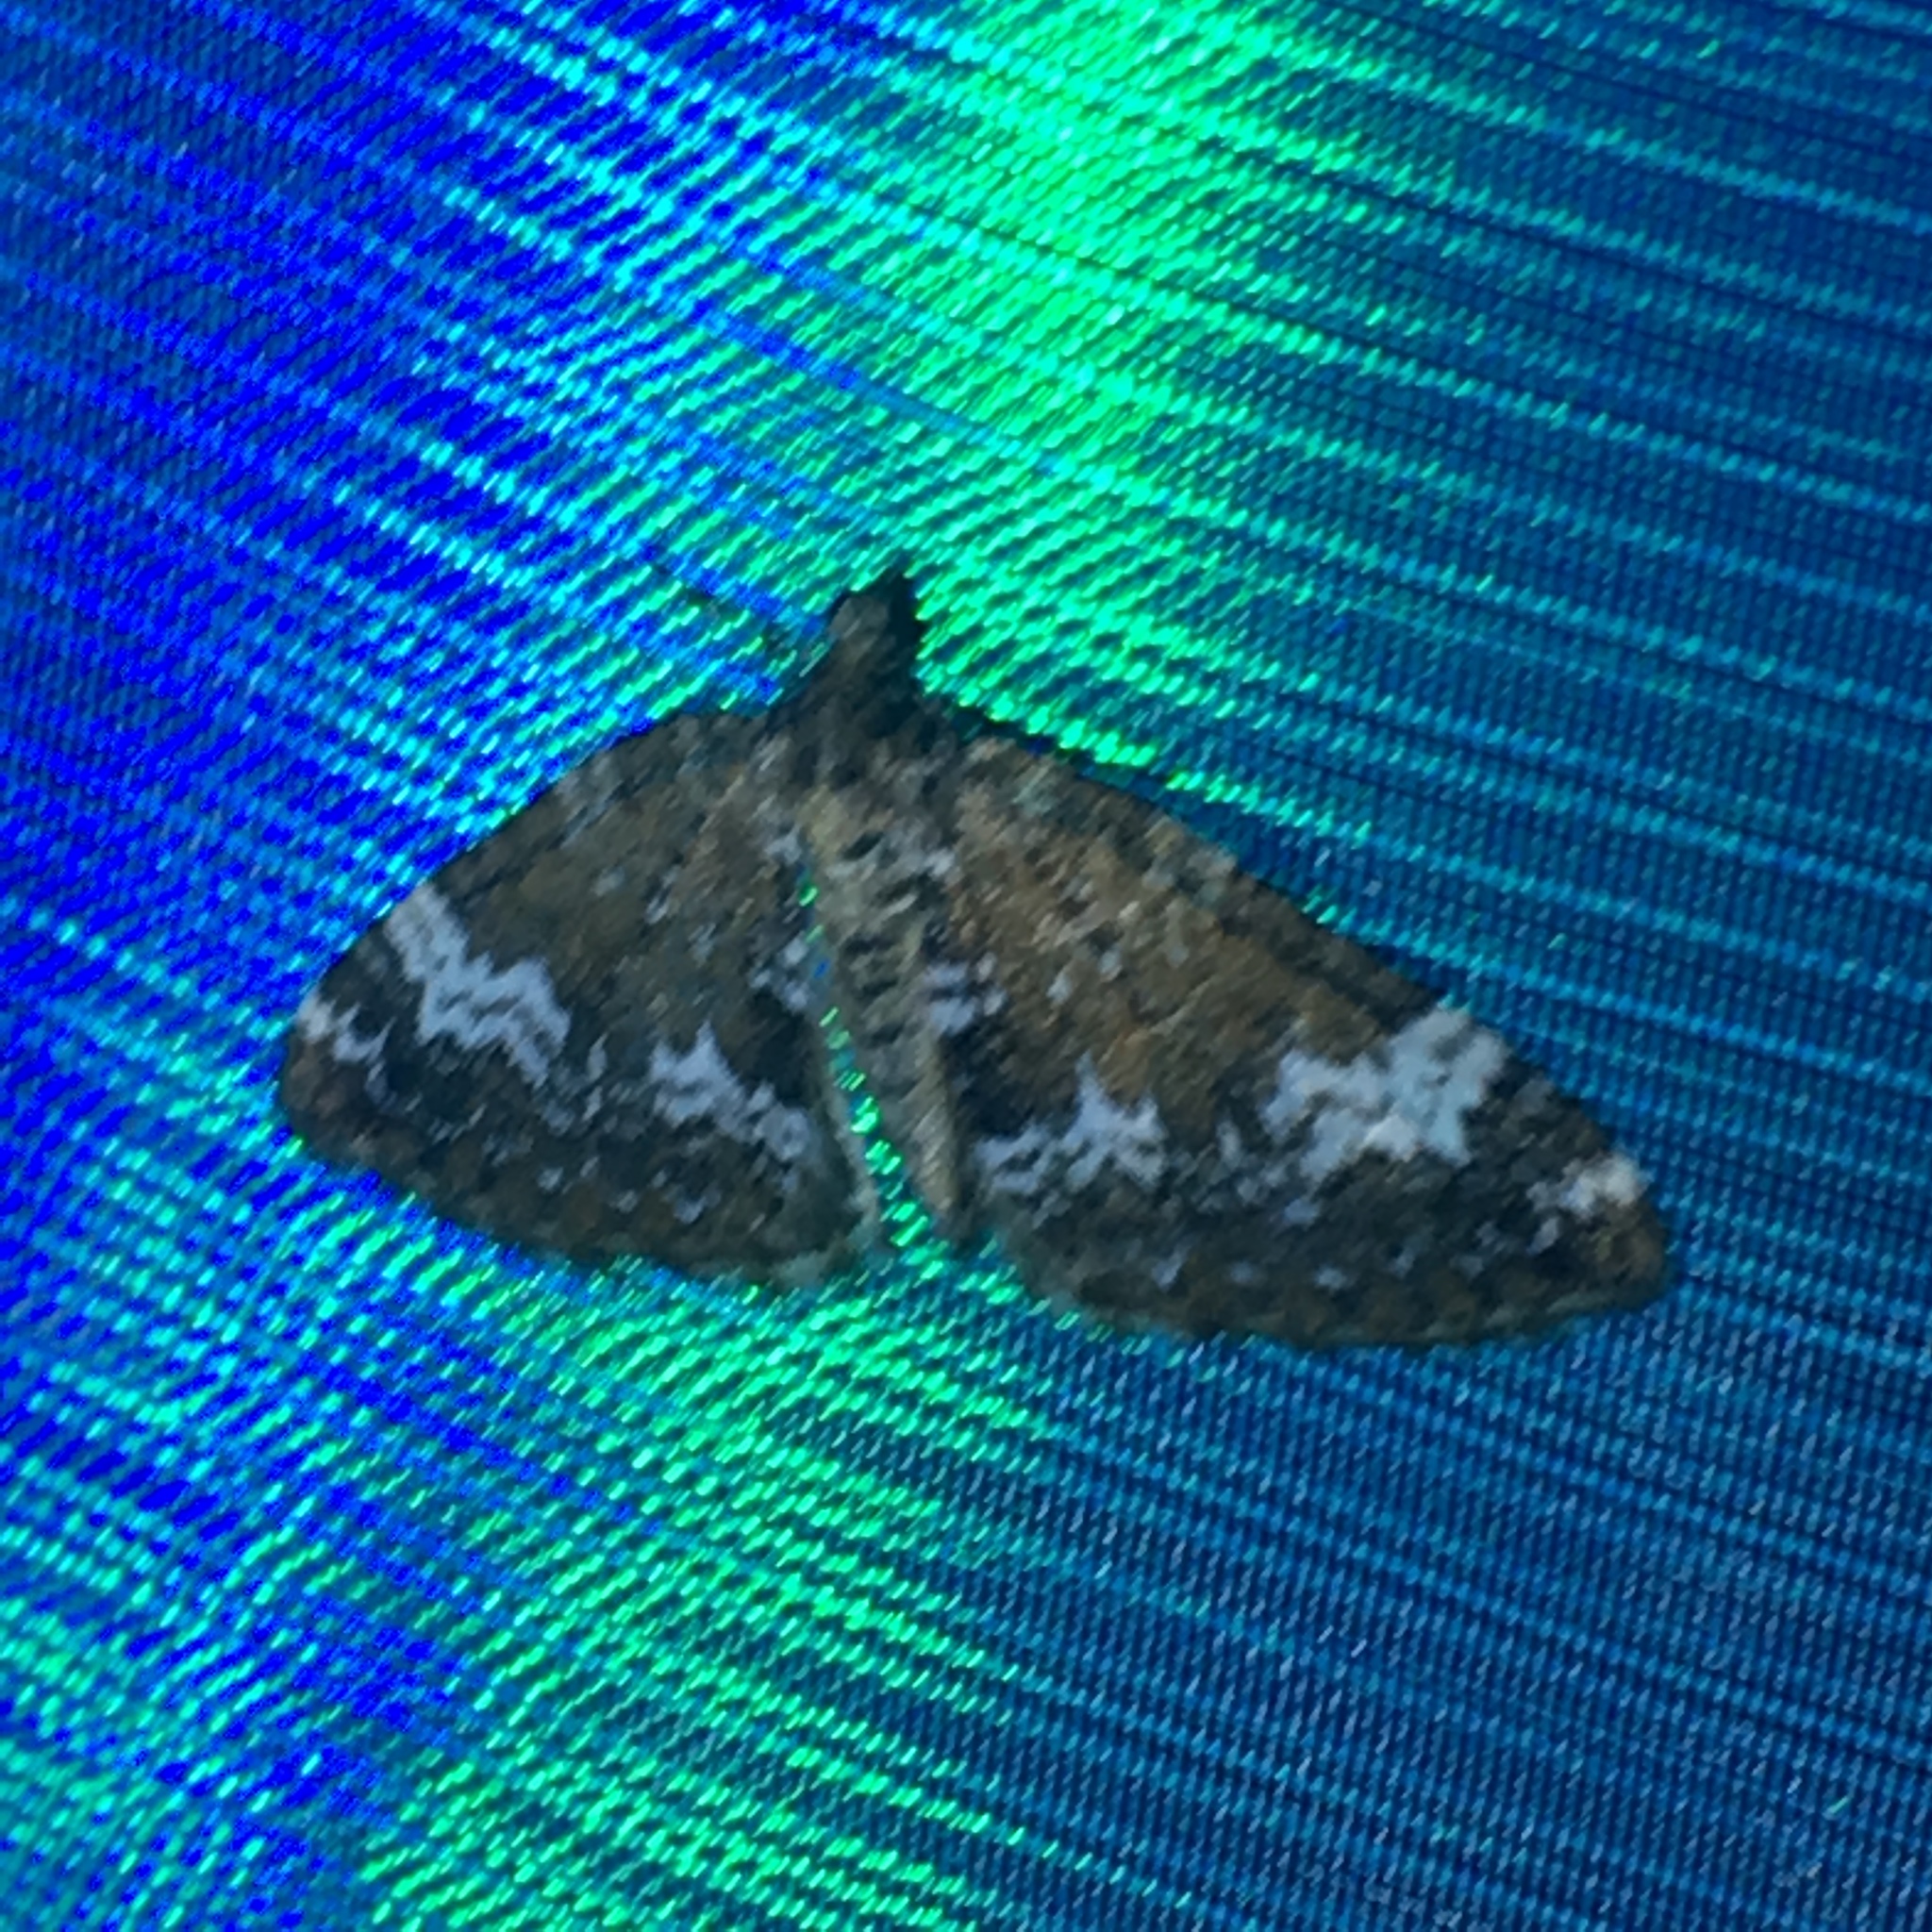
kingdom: Animalia
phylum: Arthropoda
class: Insecta
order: Lepidoptera
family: Geometridae
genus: Perizoma
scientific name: Perizoma alchemillata
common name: Small rivulet
